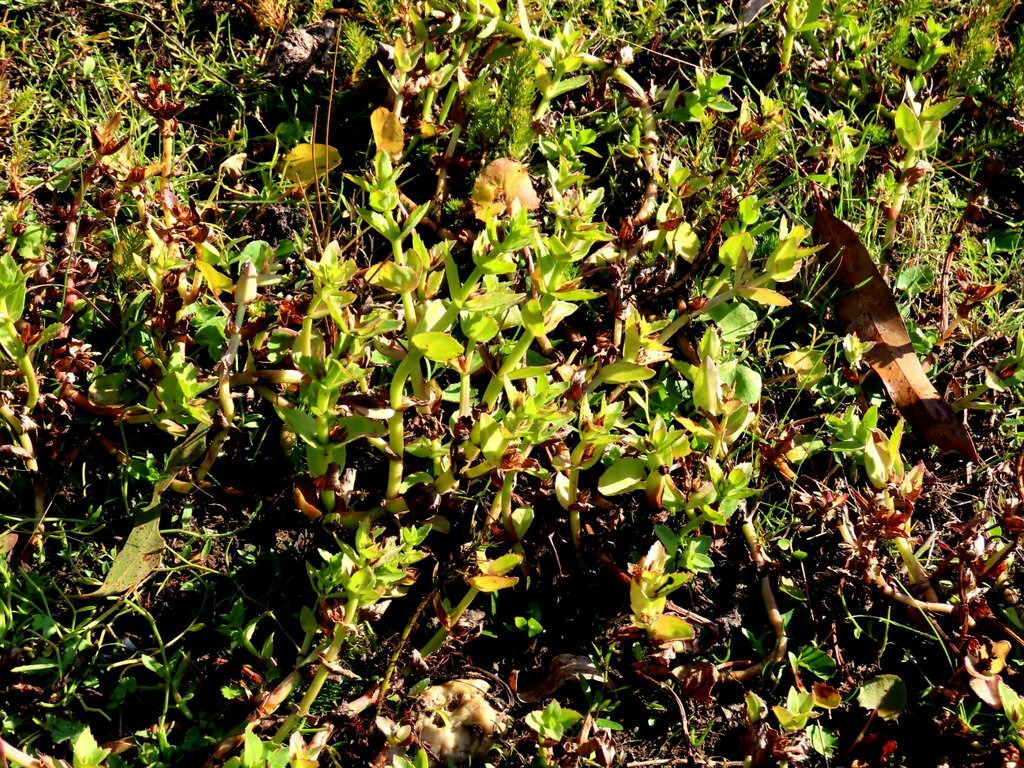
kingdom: Plantae
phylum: Tracheophyta
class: Magnoliopsida
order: Lamiales
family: Plantaginaceae
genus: Gratiola
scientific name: Gratiola peruviana
